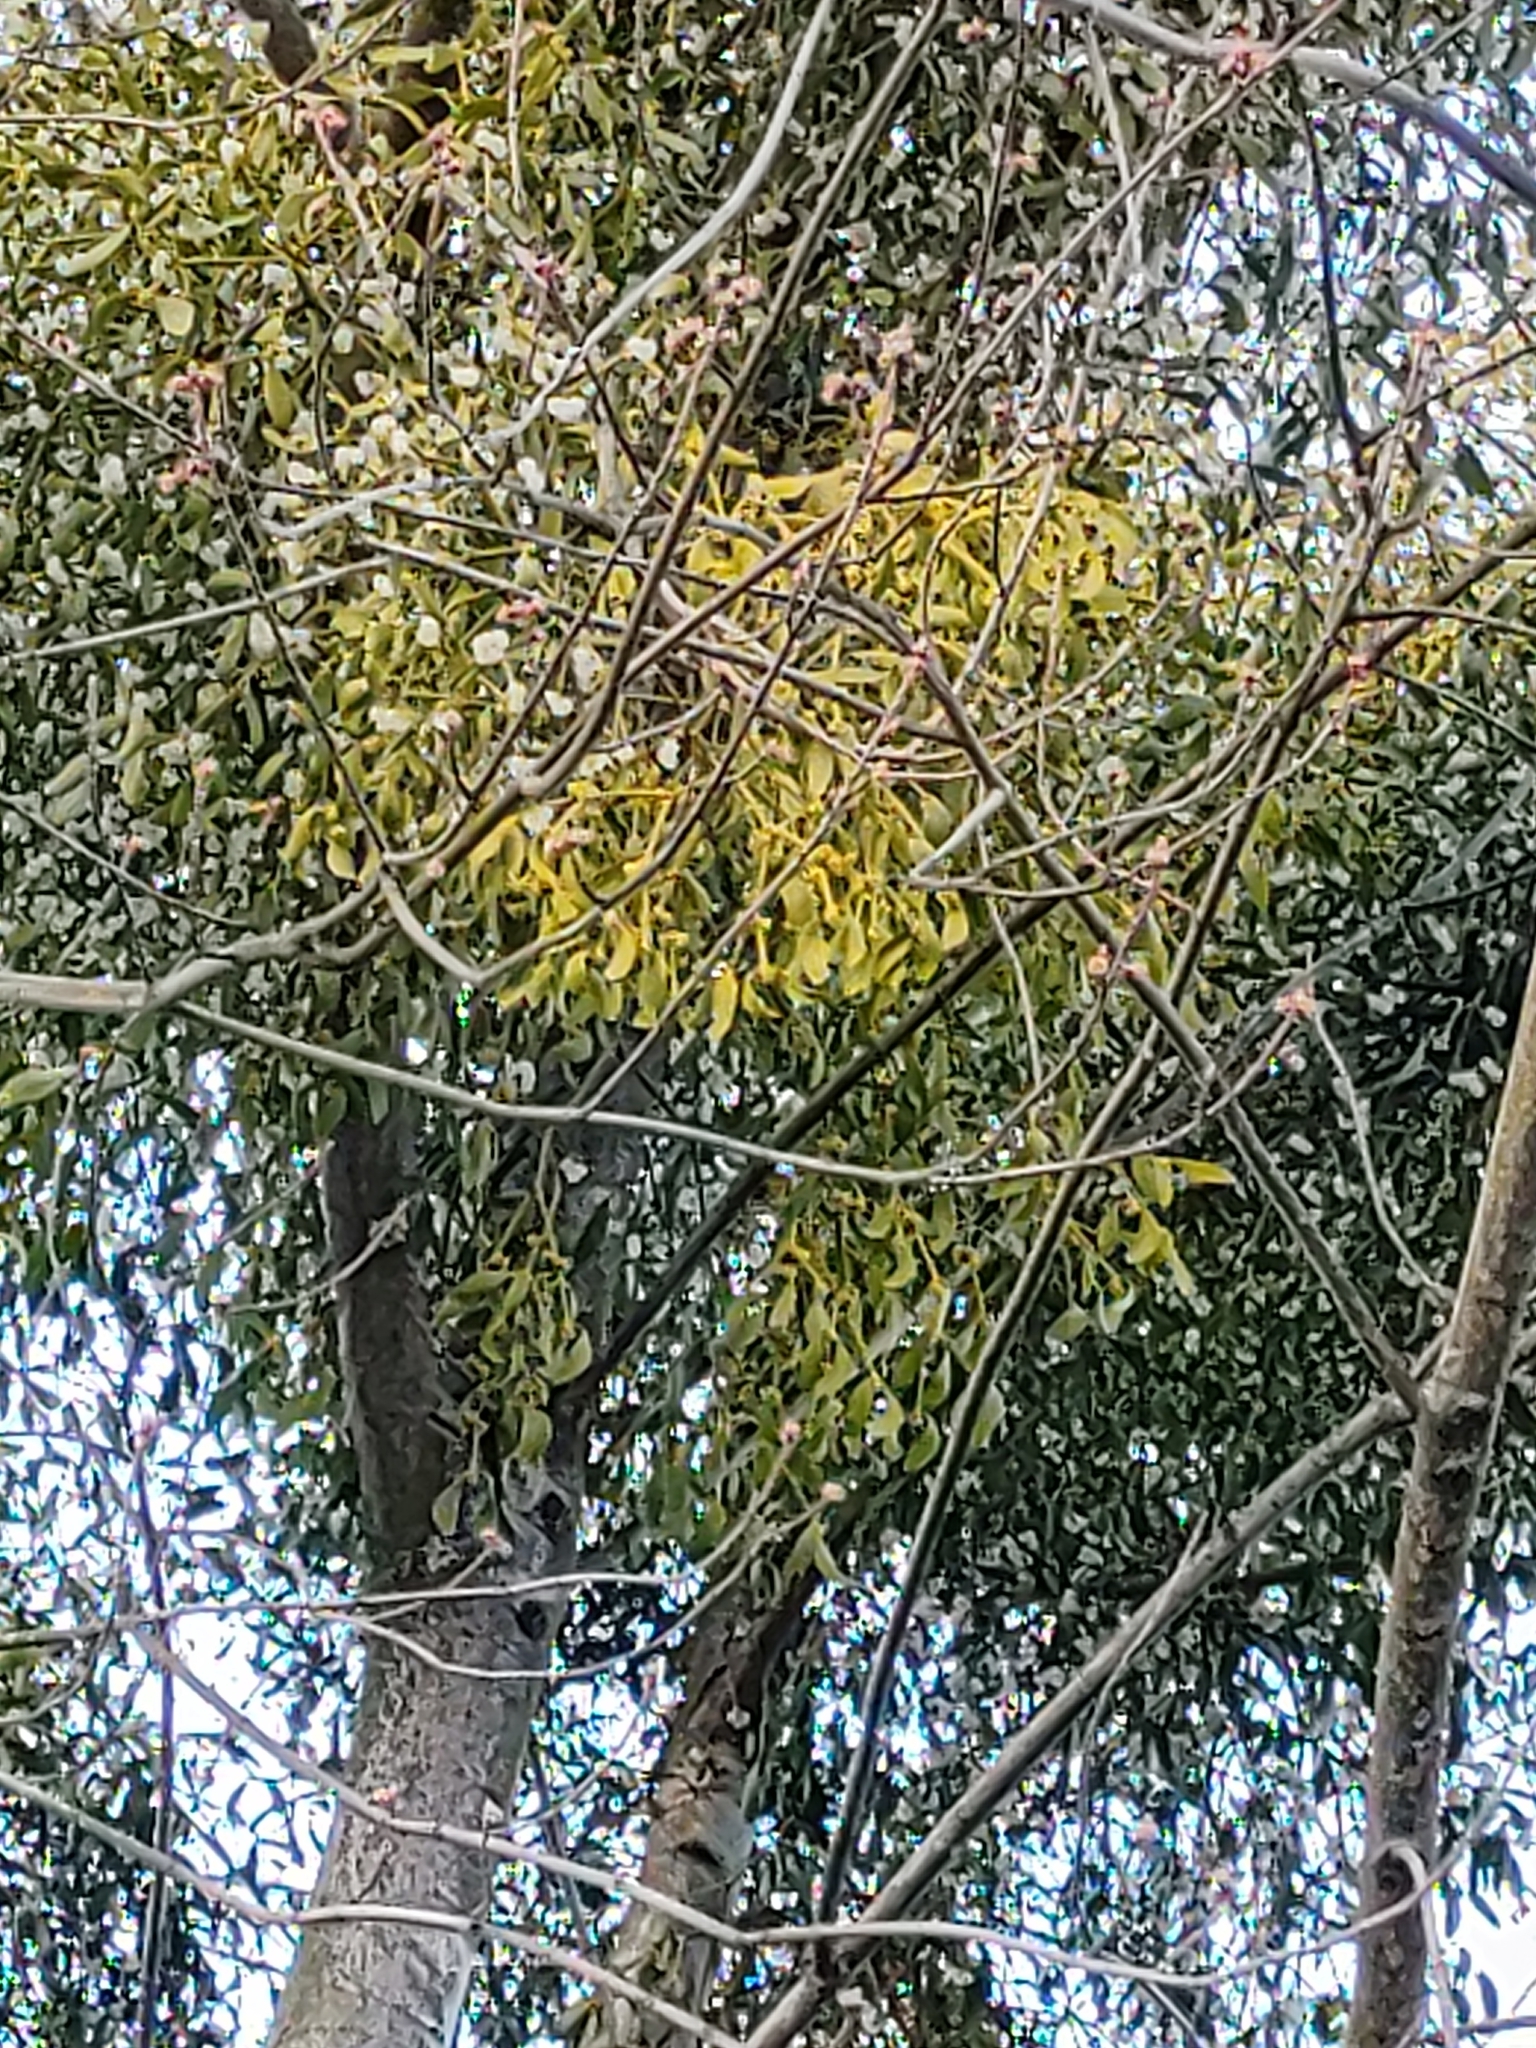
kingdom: Plantae
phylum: Tracheophyta
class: Magnoliopsida
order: Santalales
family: Viscaceae
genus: Viscum
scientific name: Viscum album
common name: Mistletoe
